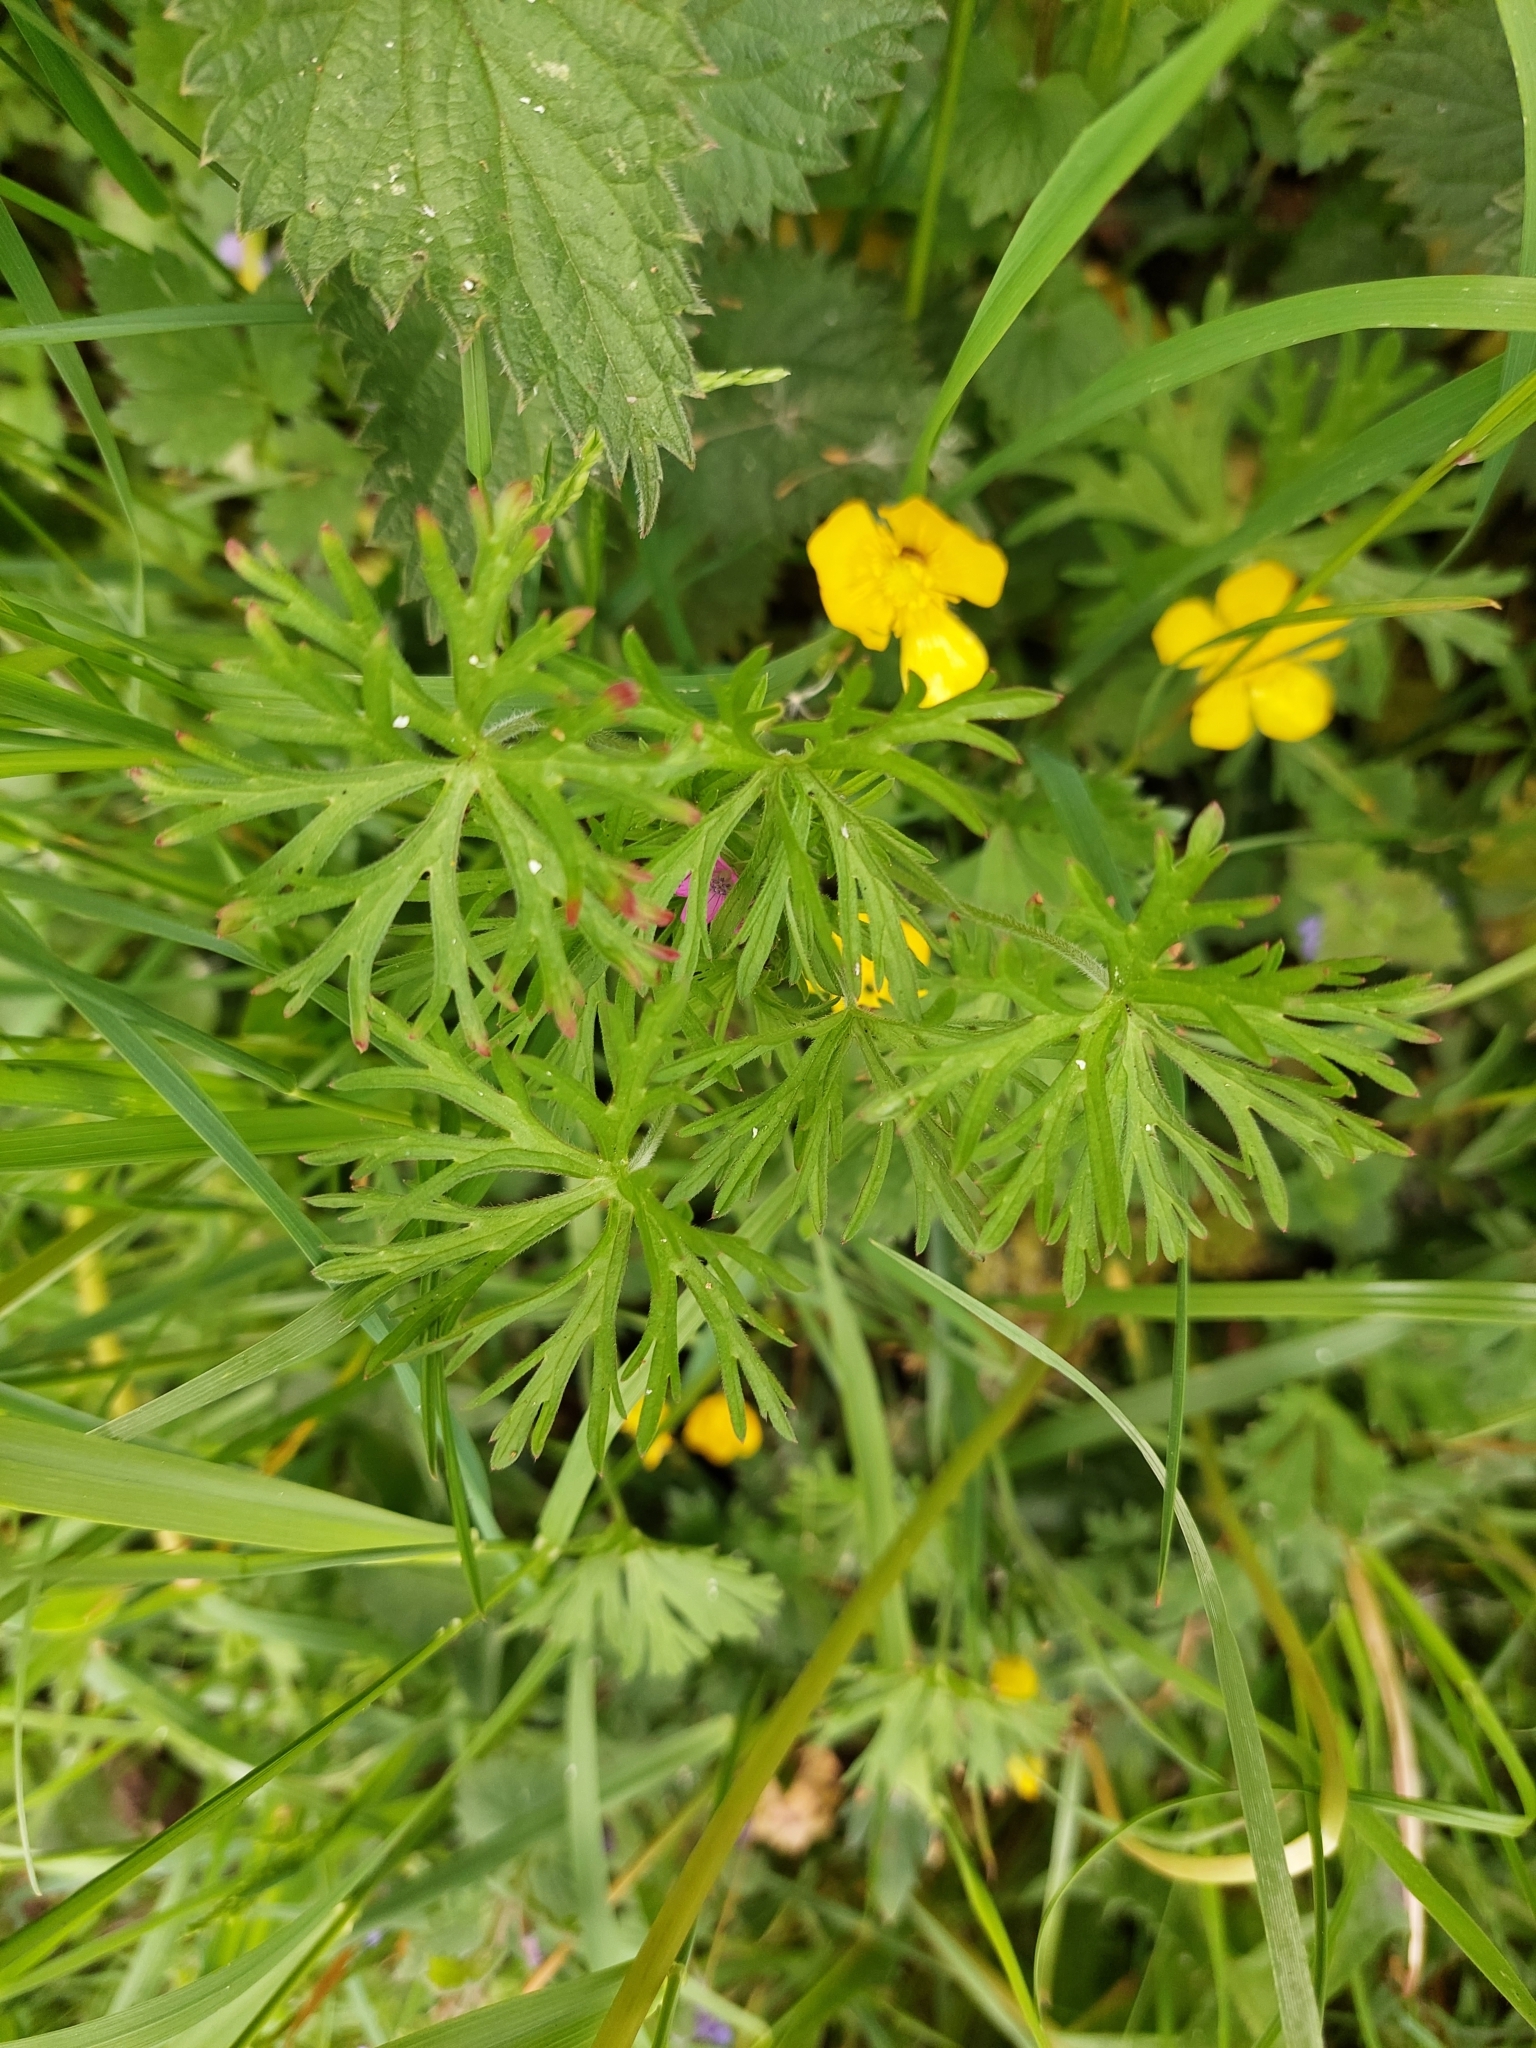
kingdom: Plantae
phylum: Tracheophyta
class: Magnoliopsida
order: Geraniales
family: Geraniaceae
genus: Geranium
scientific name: Geranium dissectum
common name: Cut-leaved crane's-bill
